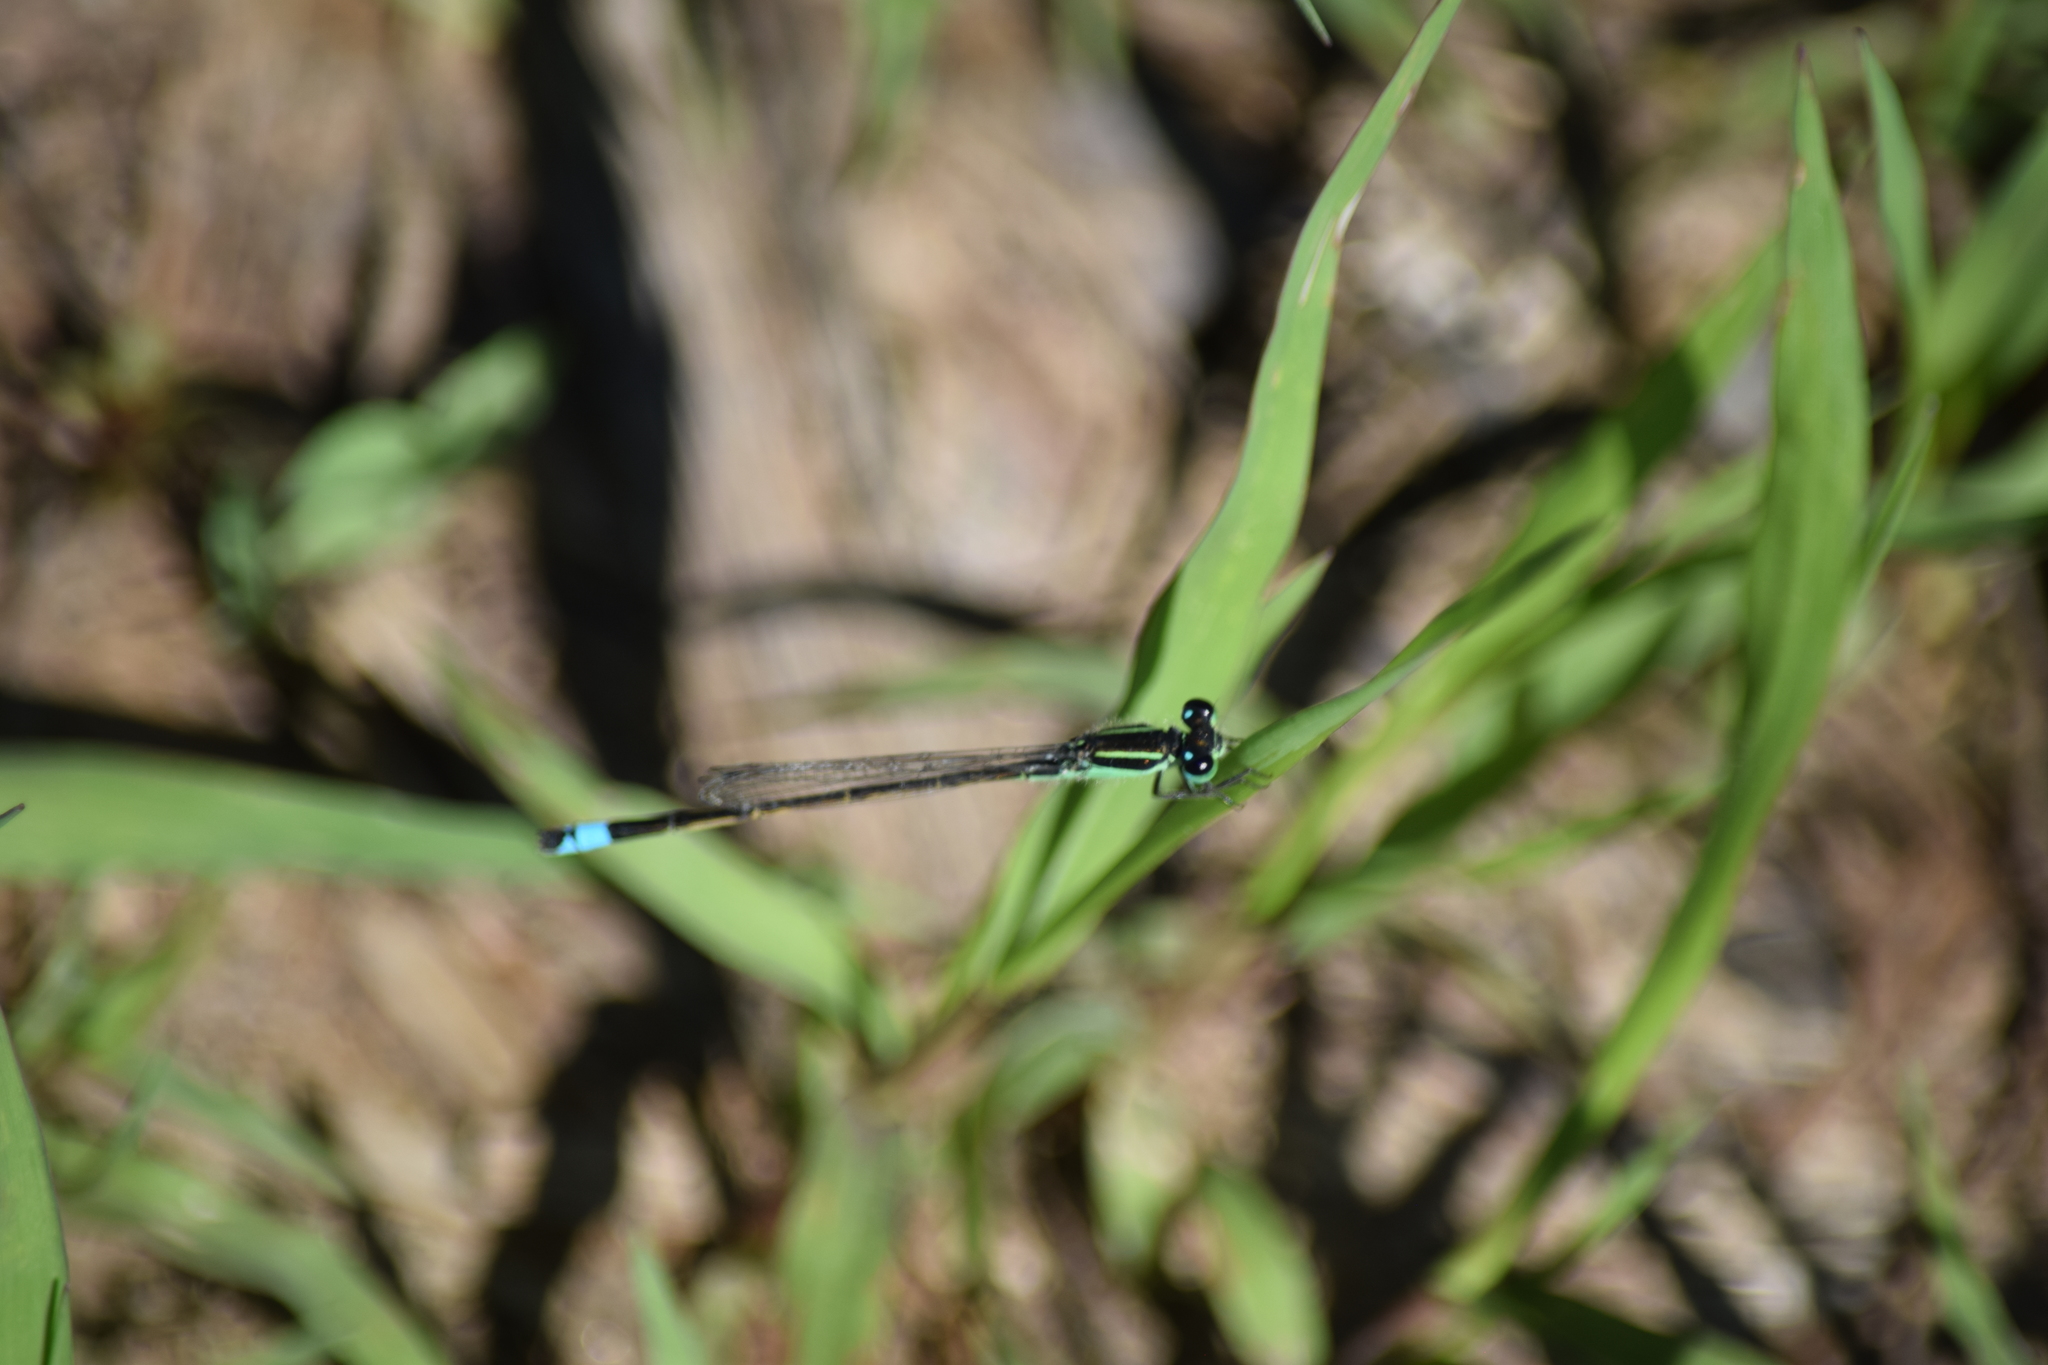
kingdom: Animalia
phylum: Arthropoda
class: Insecta
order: Odonata
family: Coenagrionidae
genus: Ischnura
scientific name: Ischnura ramburii
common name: Rambur's forktail
